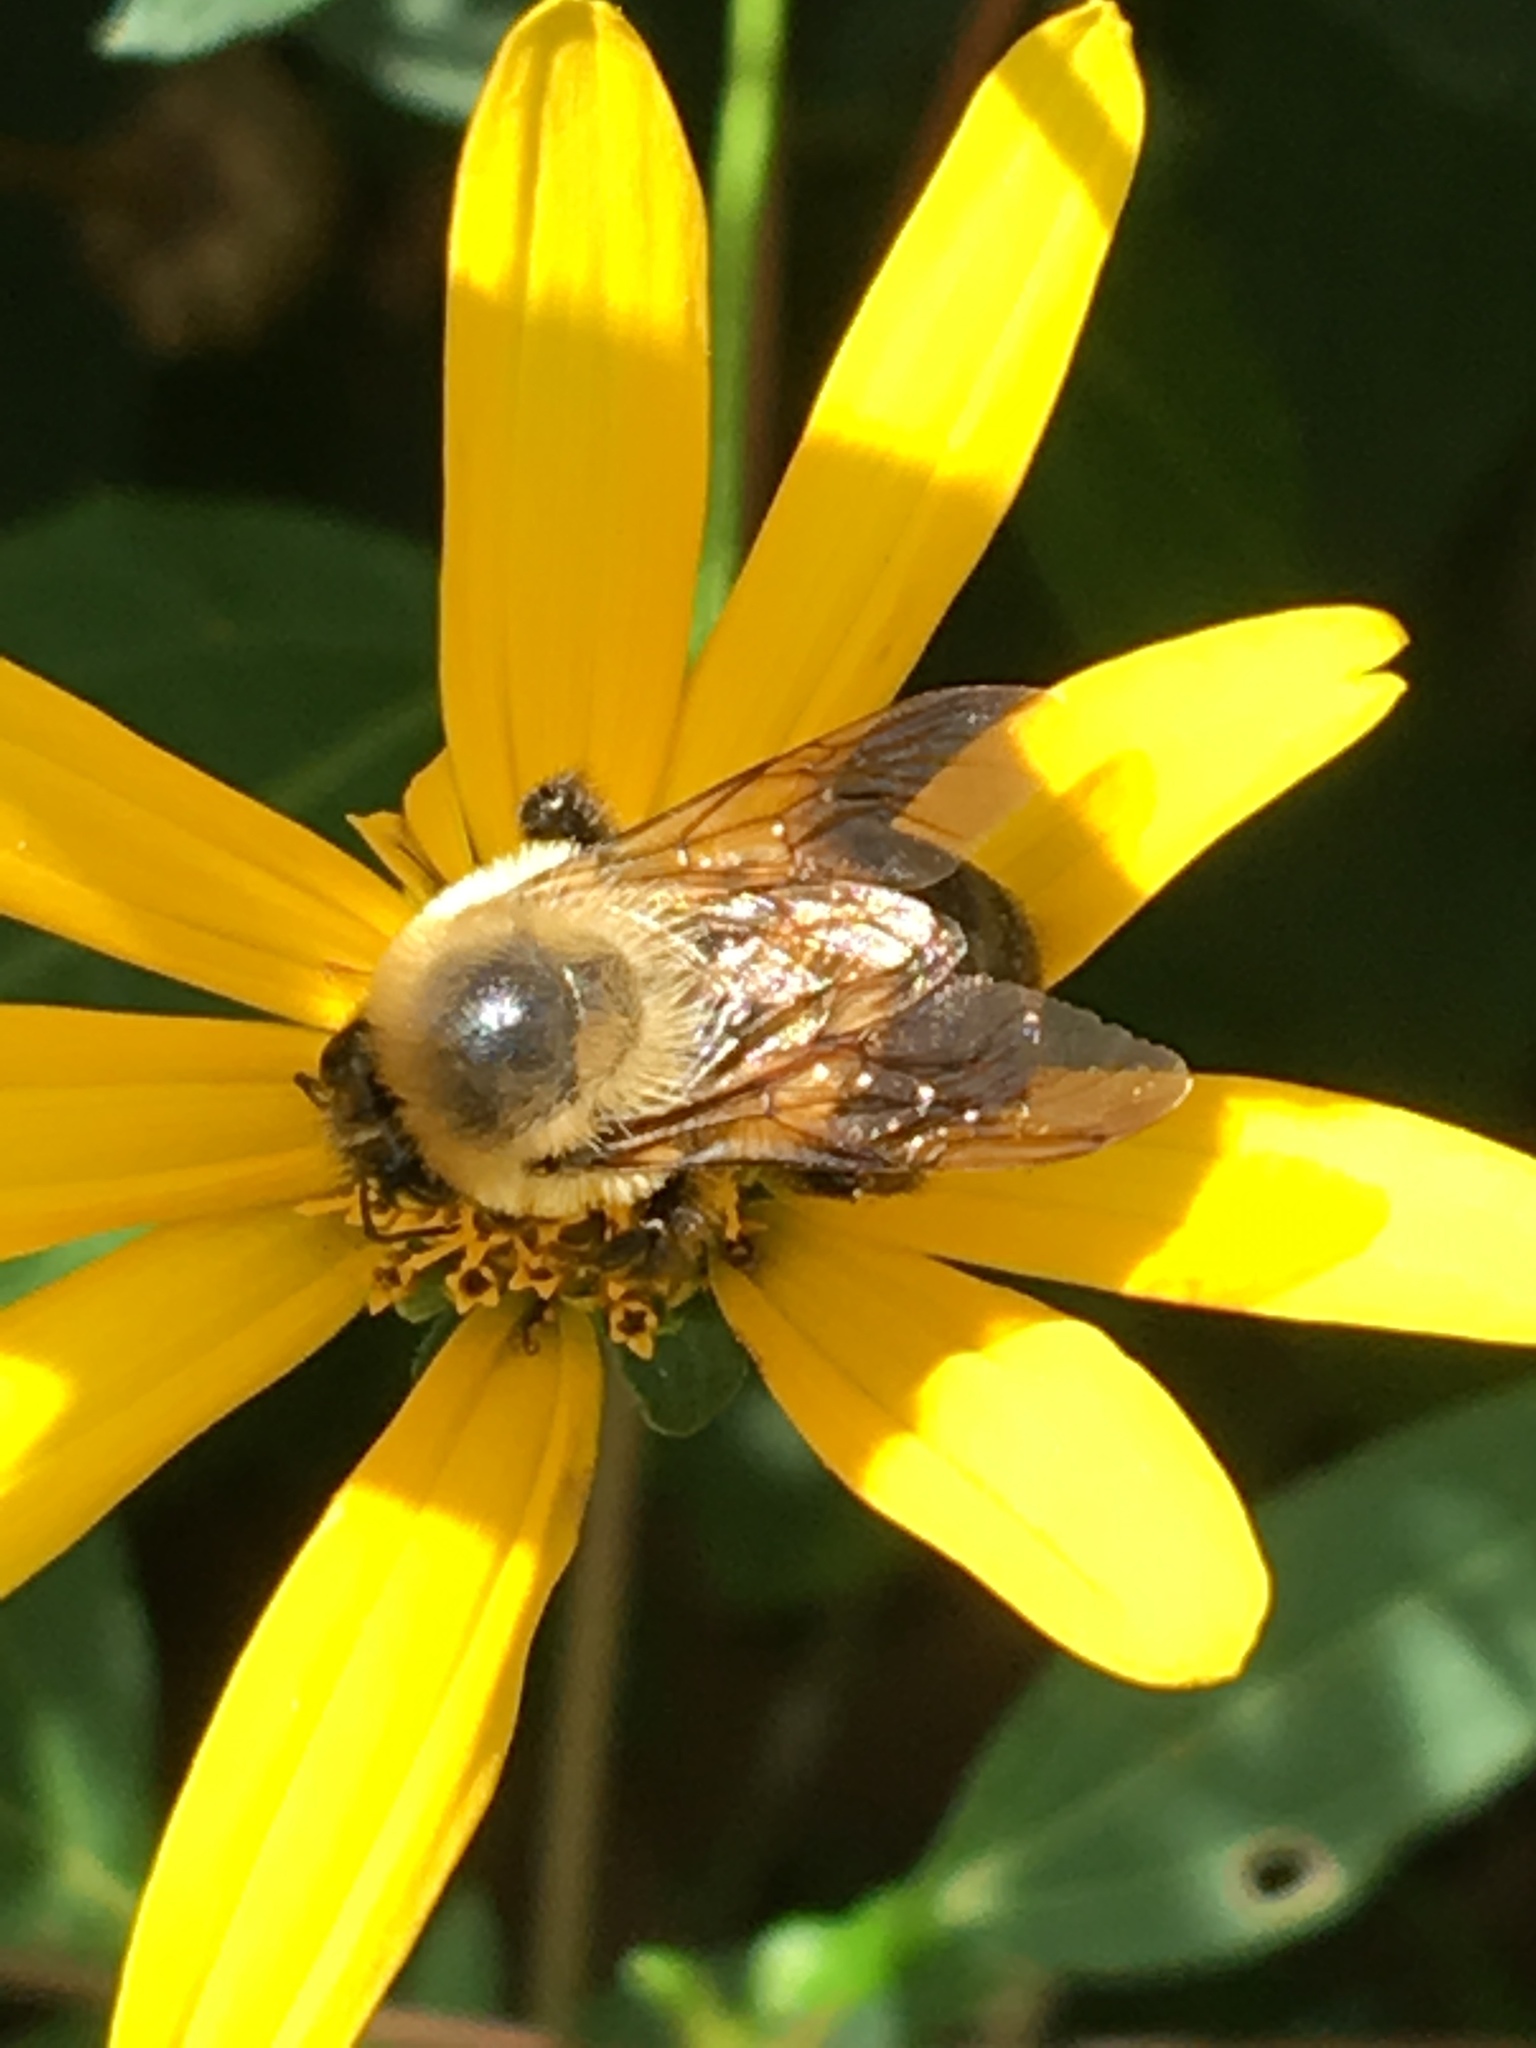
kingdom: Animalia
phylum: Arthropoda
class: Insecta
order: Hymenoptera
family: Apidae
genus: Bombus
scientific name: Bombus griseocollis
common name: Brown-belted bumble bee
